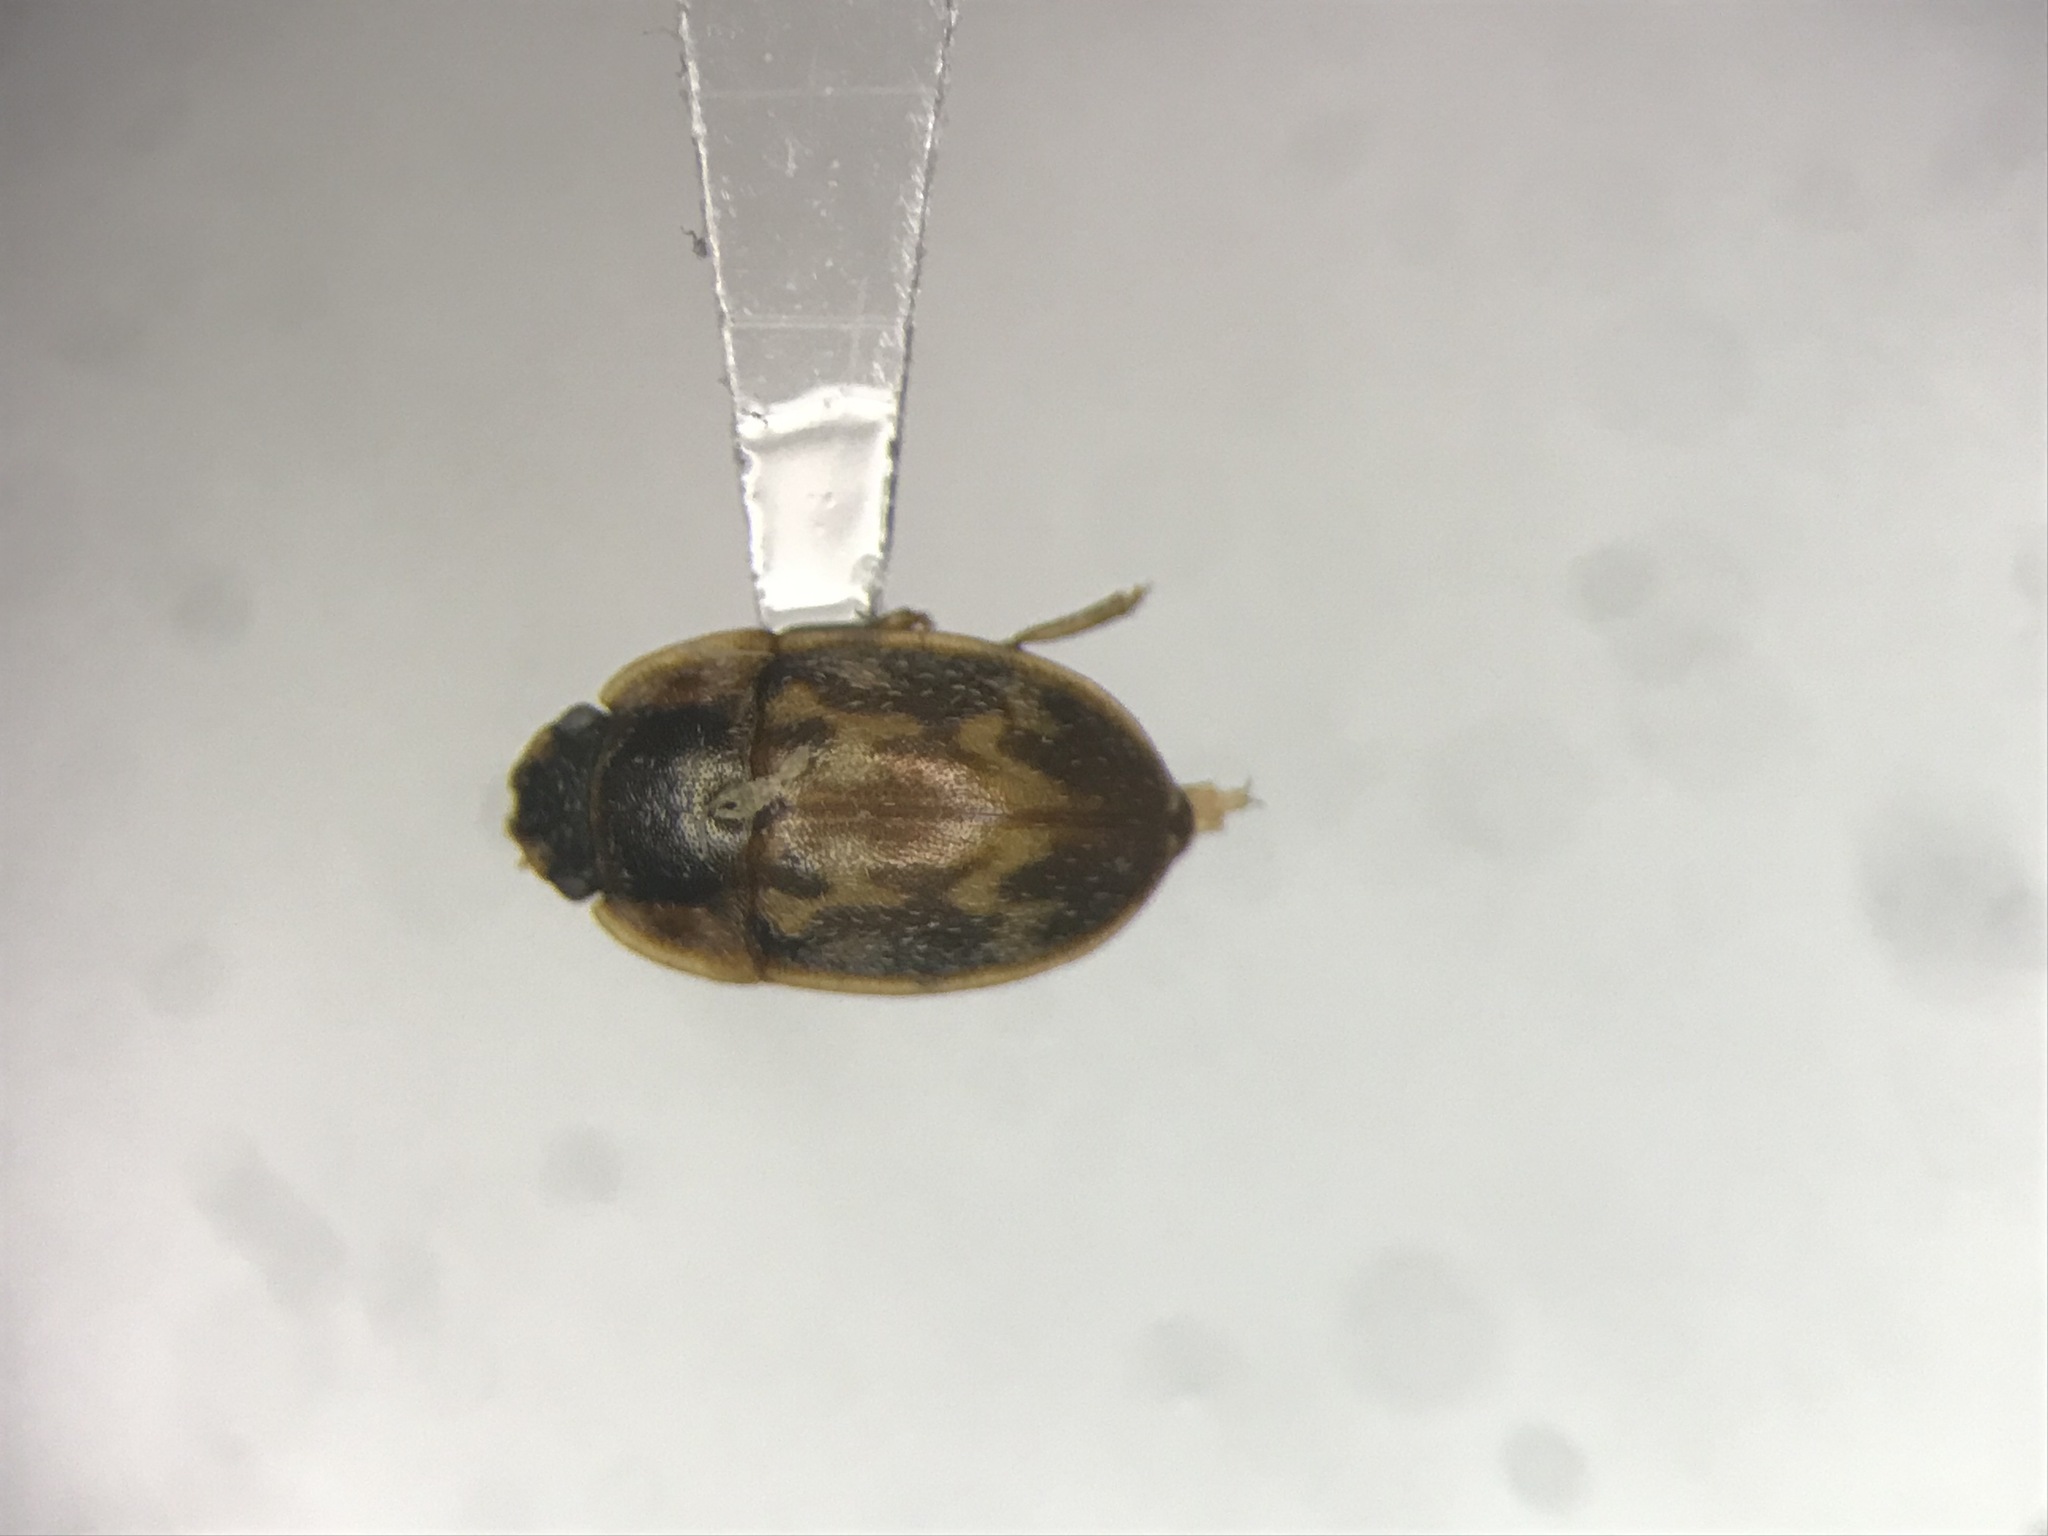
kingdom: Animalia
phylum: Arthropoda
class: Insecta
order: Coleoptera
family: Nitidulidae
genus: Cryptarcha
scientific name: Cryptarcha strigatula
